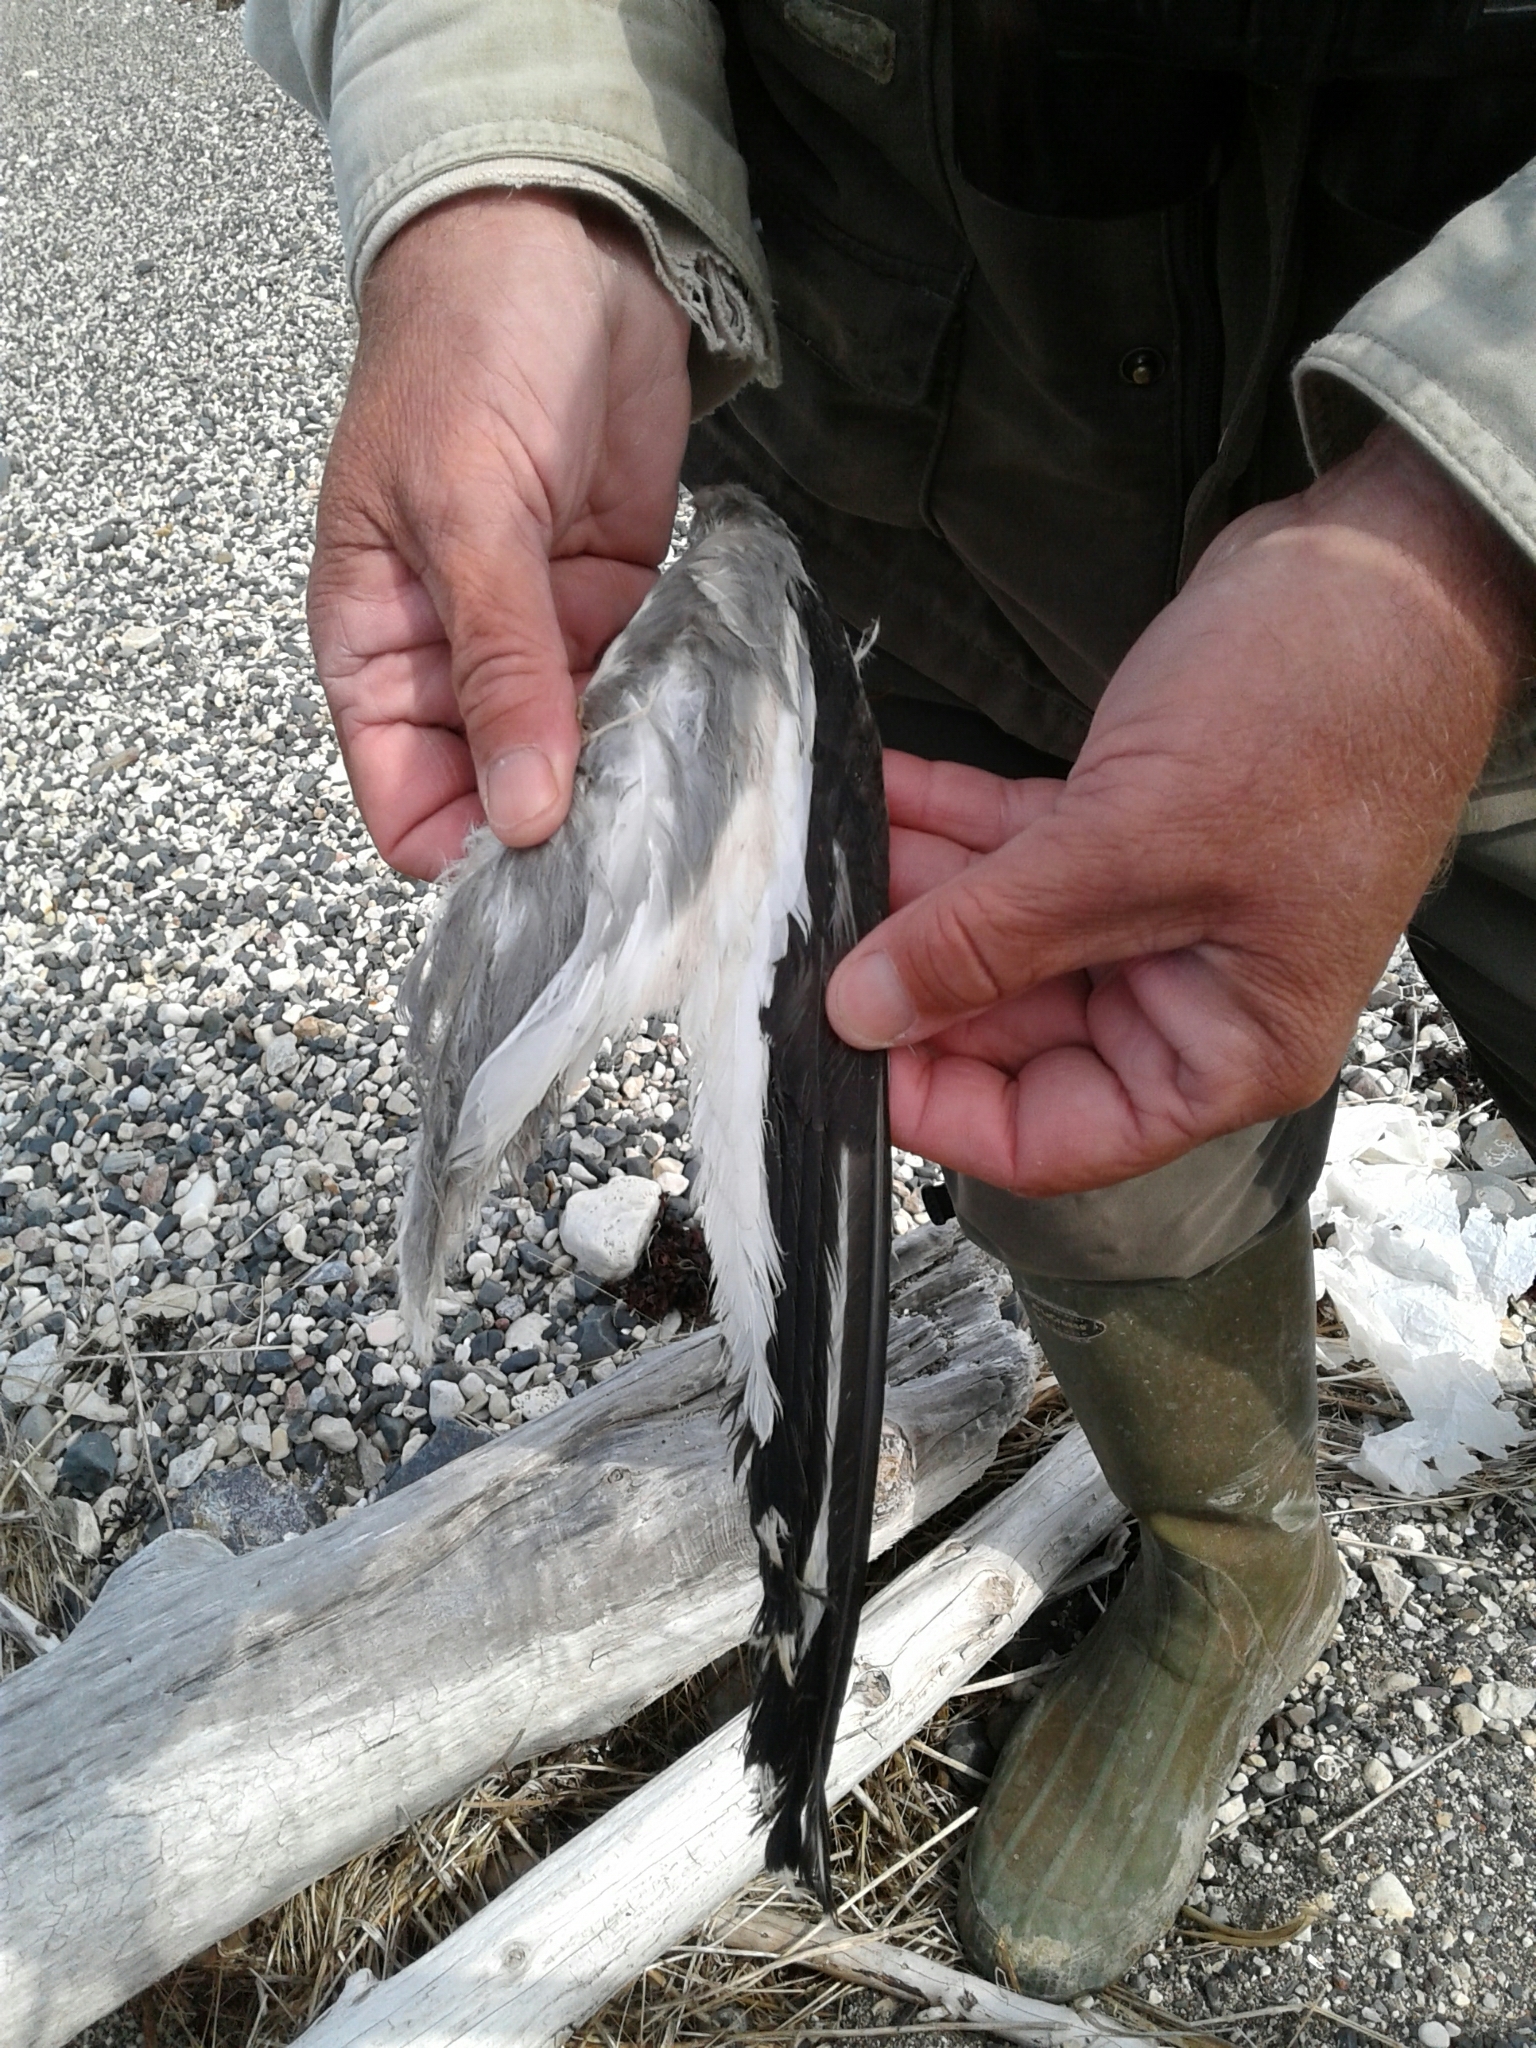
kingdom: Animalia
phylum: Chordata
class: Aves
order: Charadriiformes
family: Laridae
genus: Xema
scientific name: Xema sabini
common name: Sabine's gull
